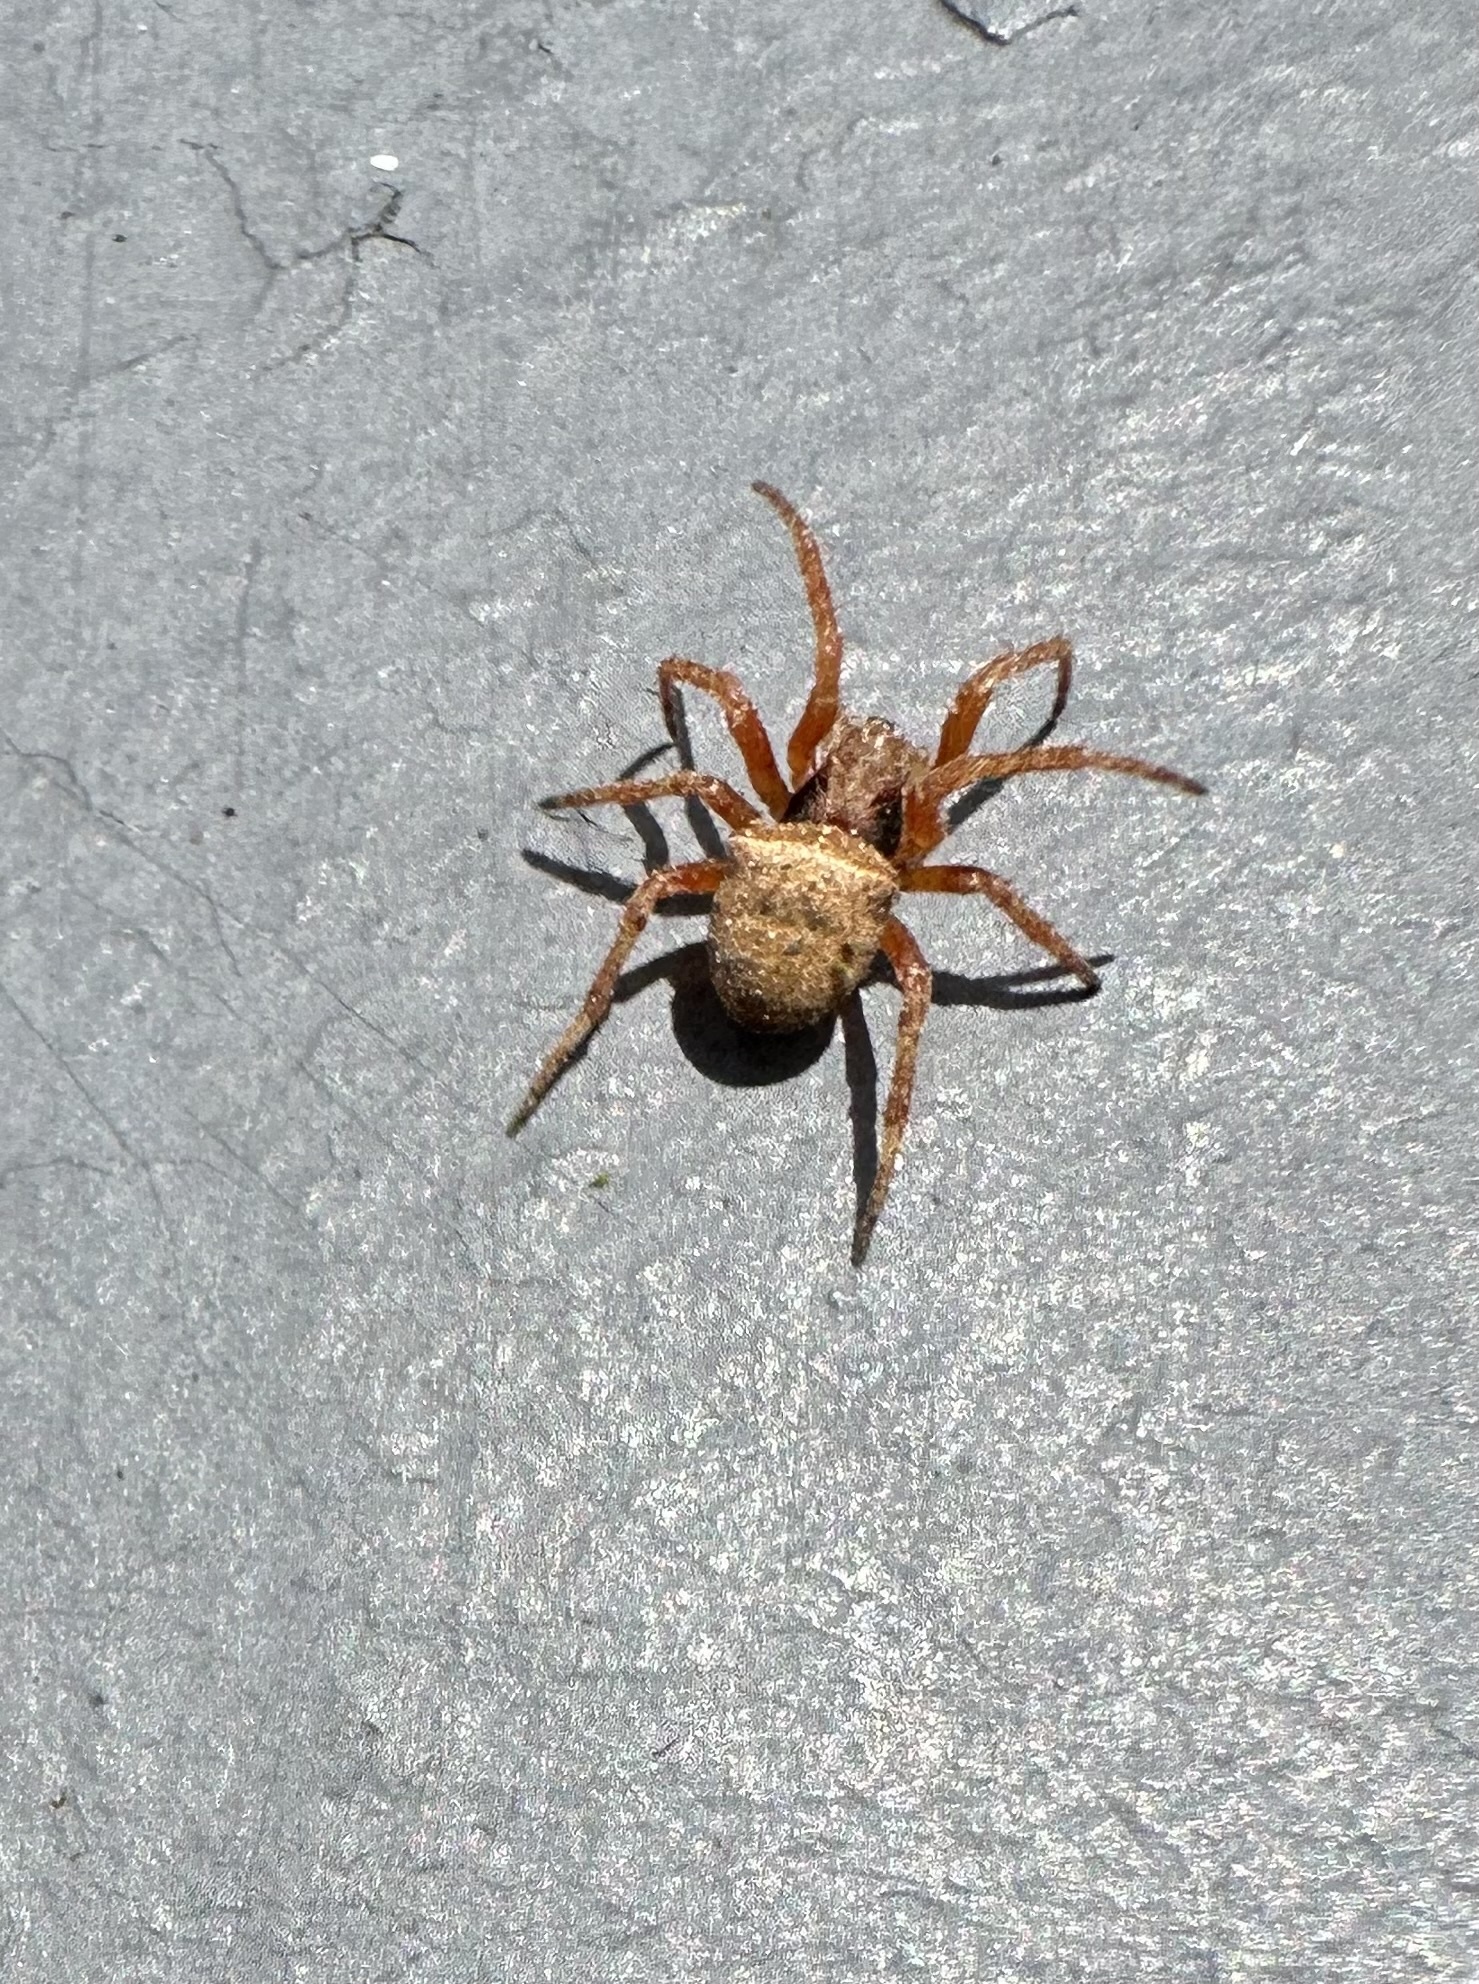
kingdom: Animalia
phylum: Arthropoda
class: Arachnida
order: Araneae
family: Araneidae
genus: Ocrepeira
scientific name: Ocrepeira venustula
